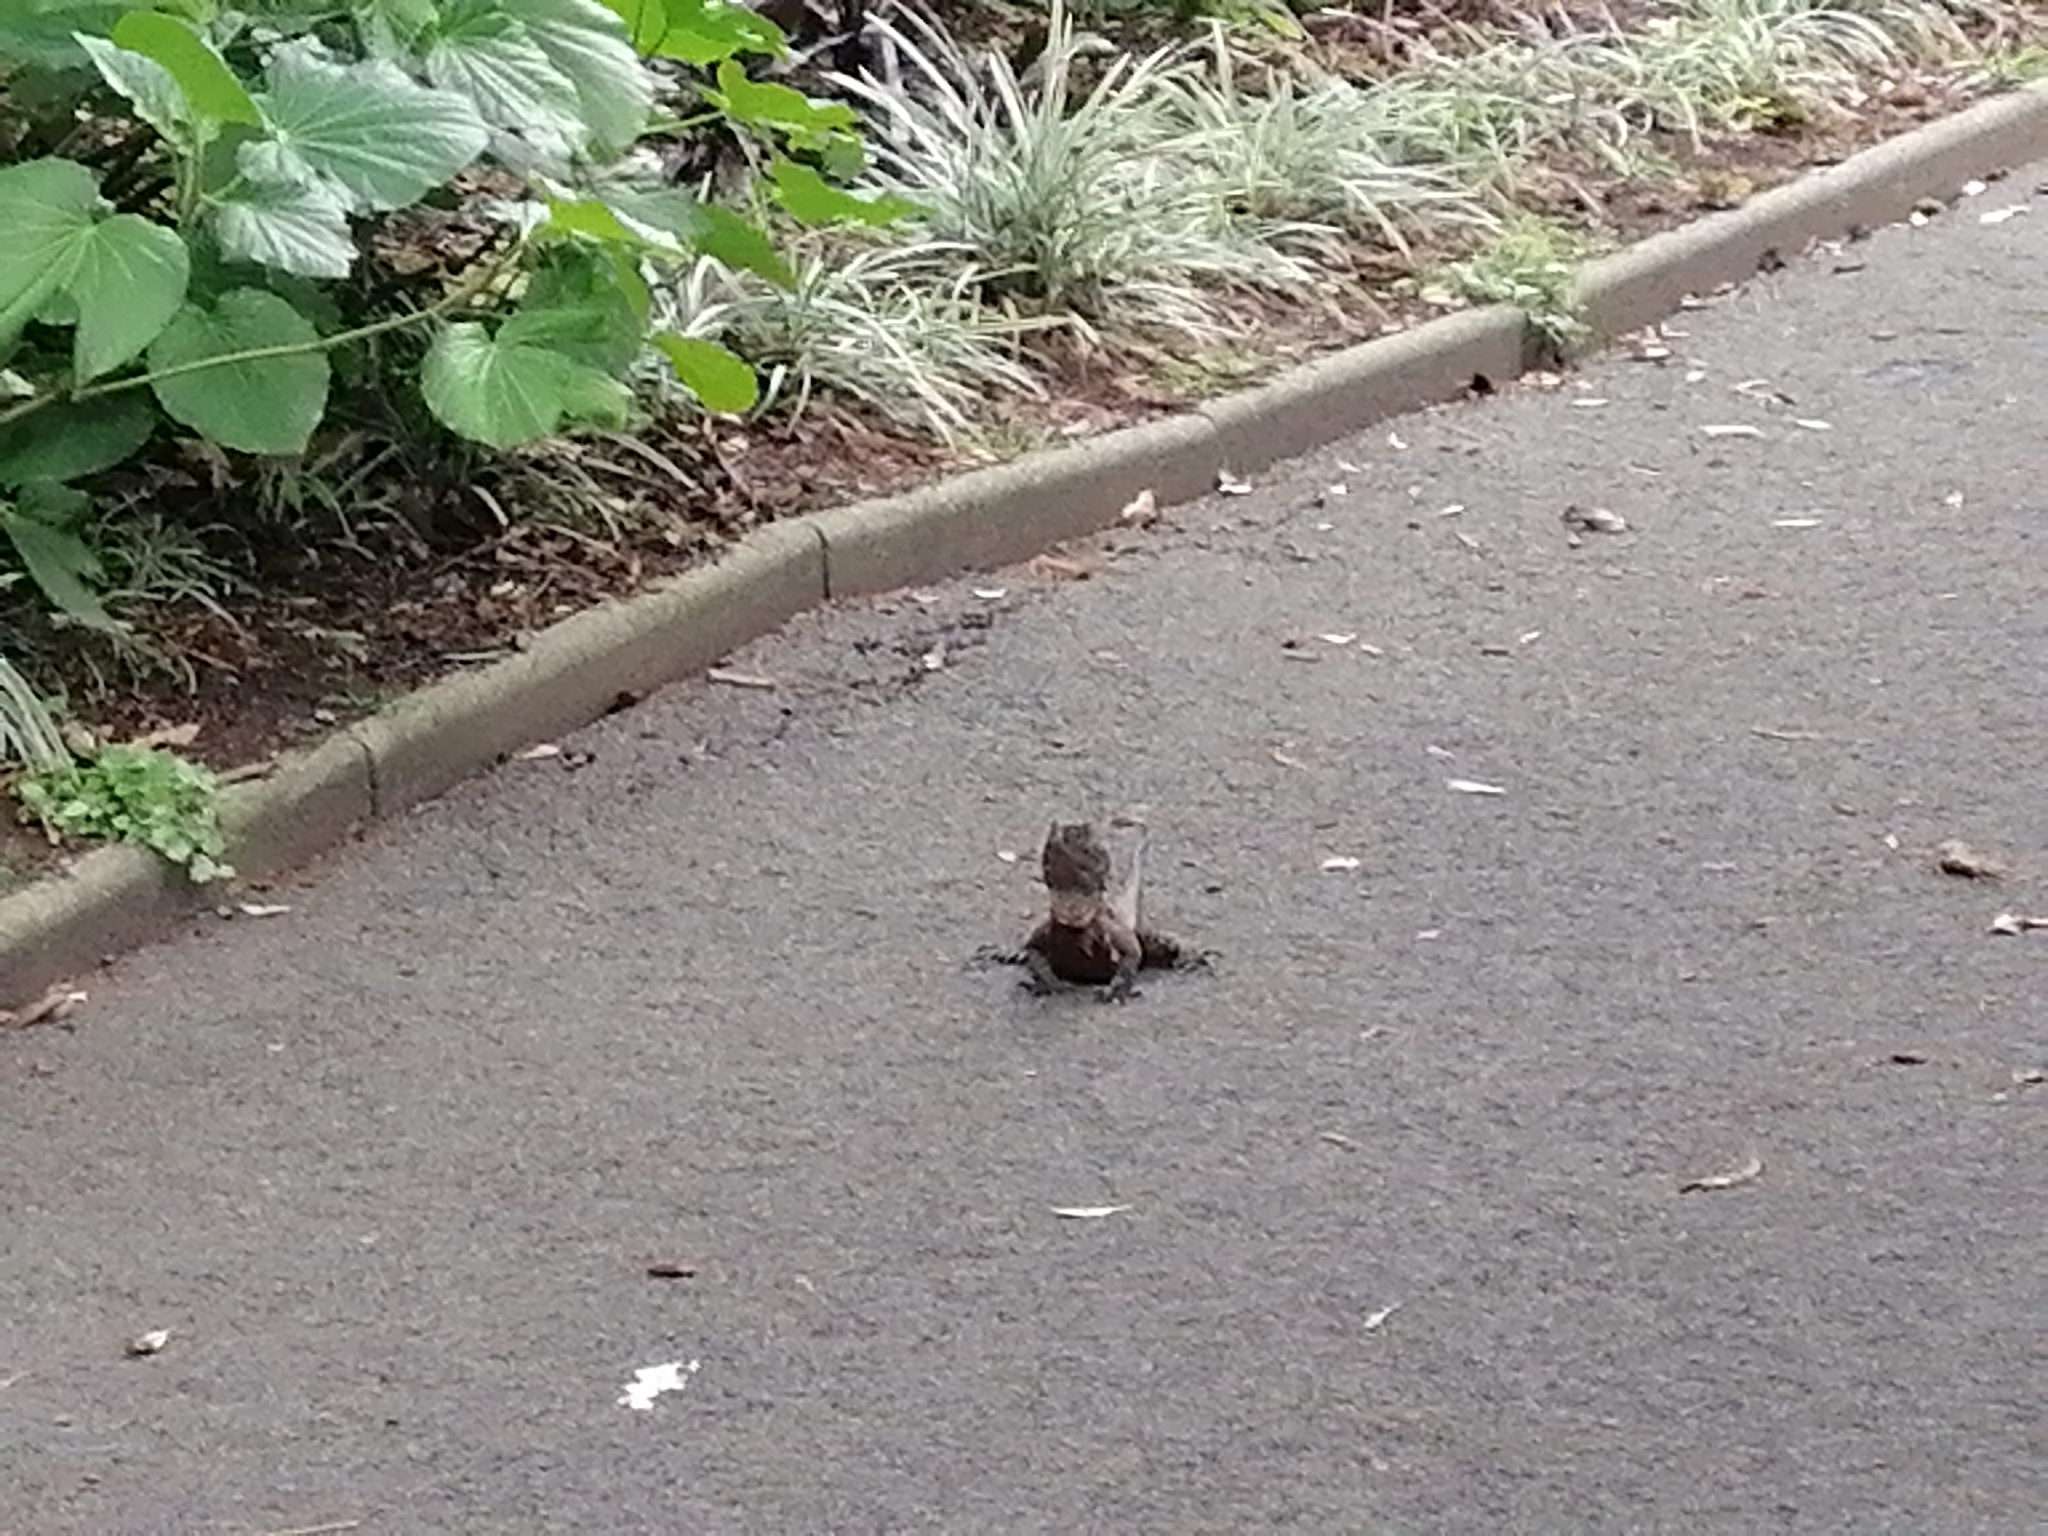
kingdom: Animalia
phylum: Chordata
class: Squamata
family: Agamidae
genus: Intellagama
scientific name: Intellagama lesueurii
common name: Eastern water dragon
